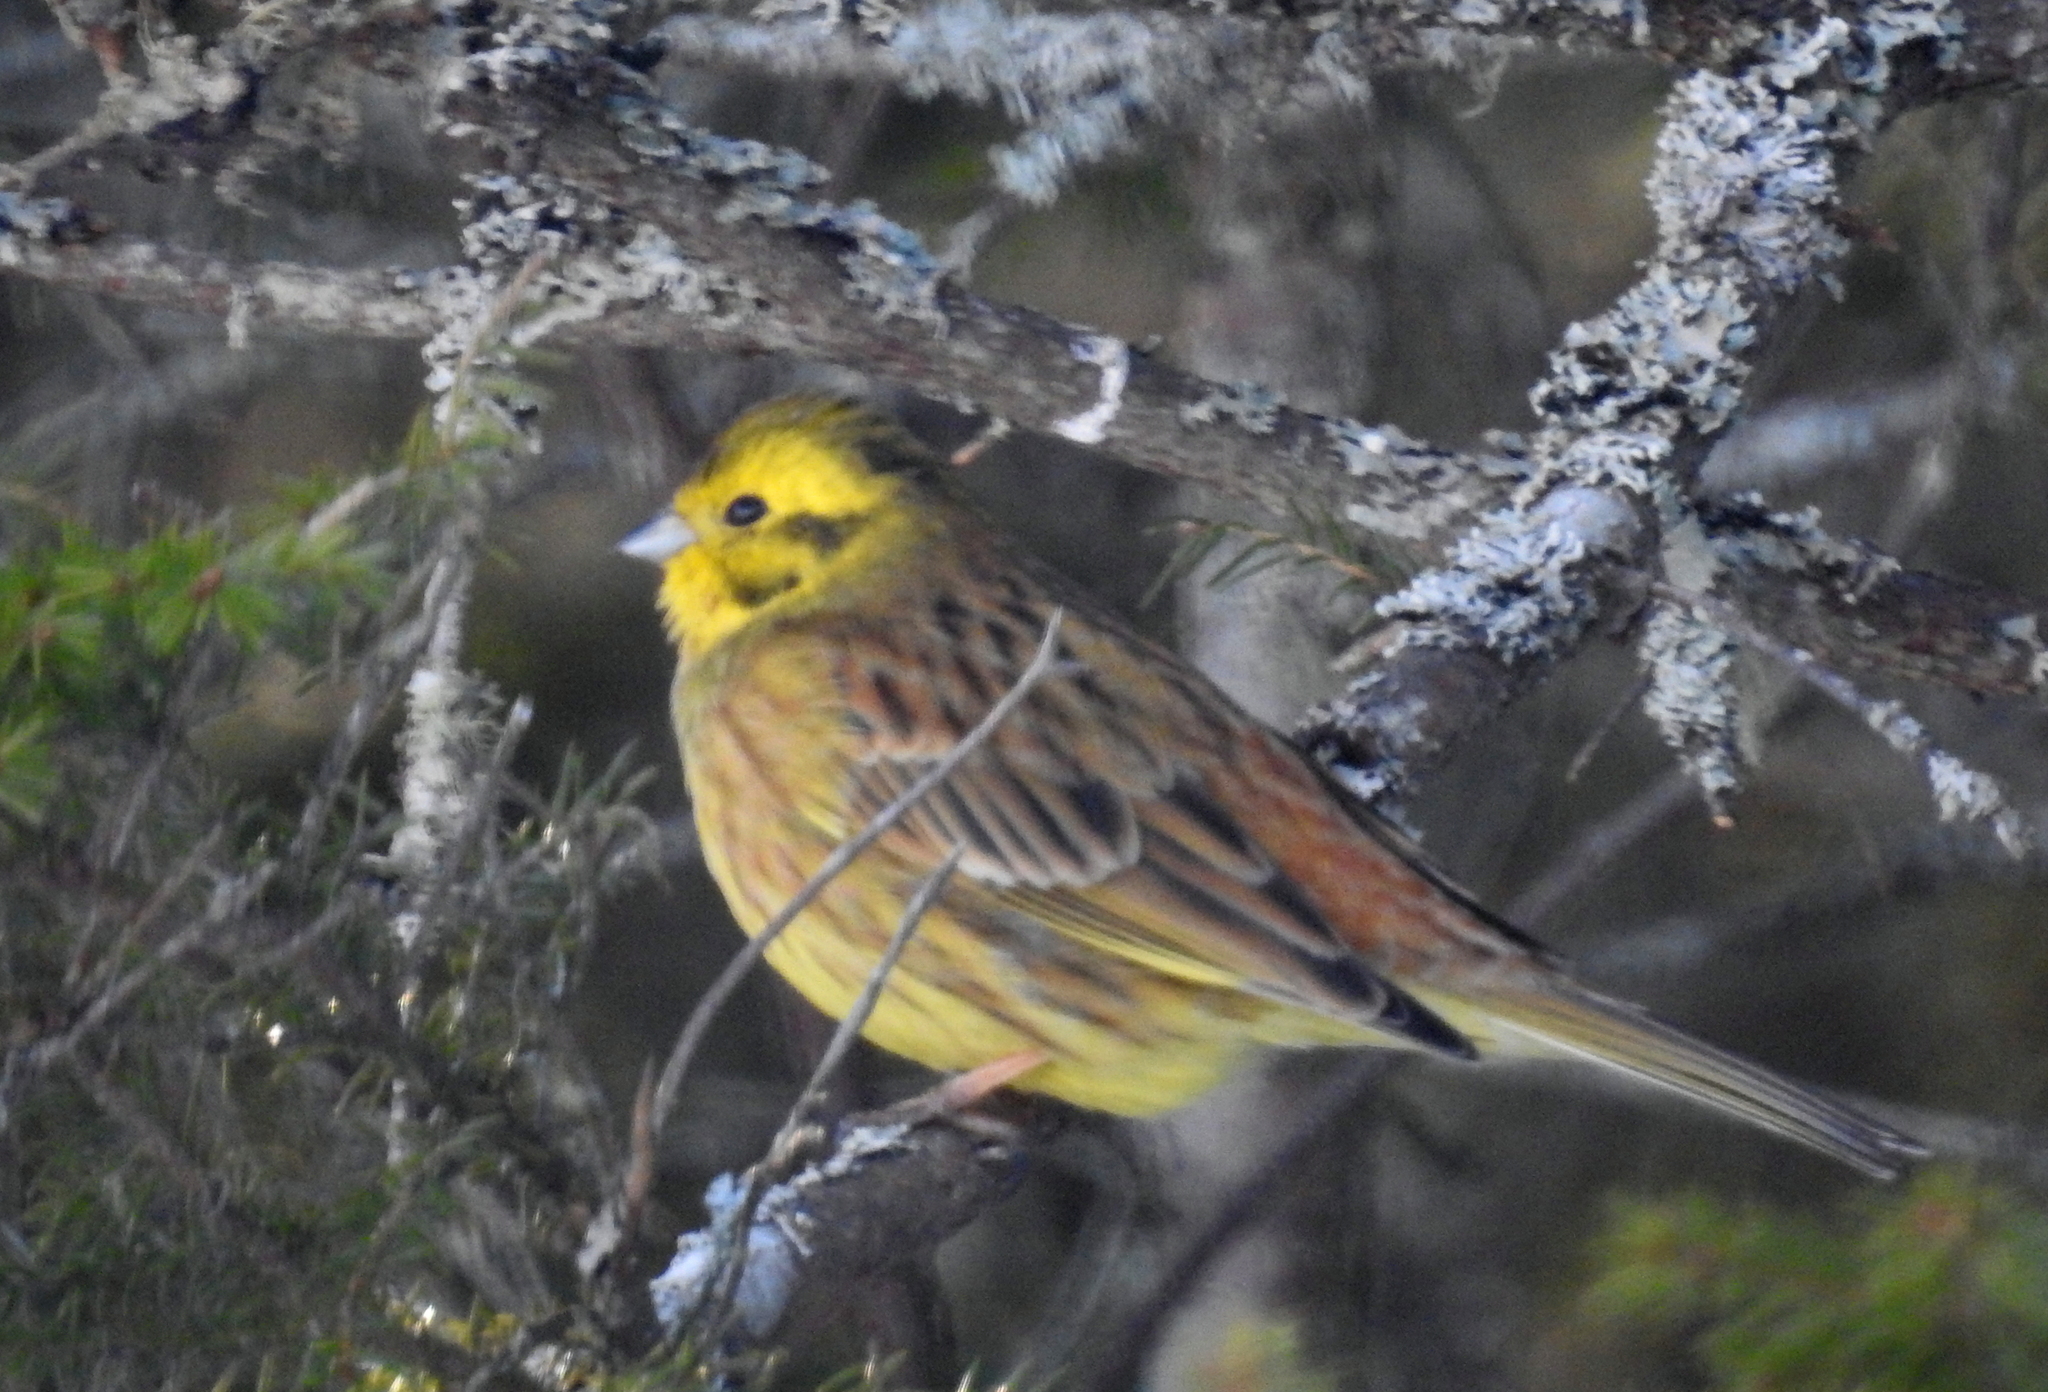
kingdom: Animalia
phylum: Chordata
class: Aves
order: Passeriformes
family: Emberizidae
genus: Emberiza
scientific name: Emberiza citrinella
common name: Yellowhammer
